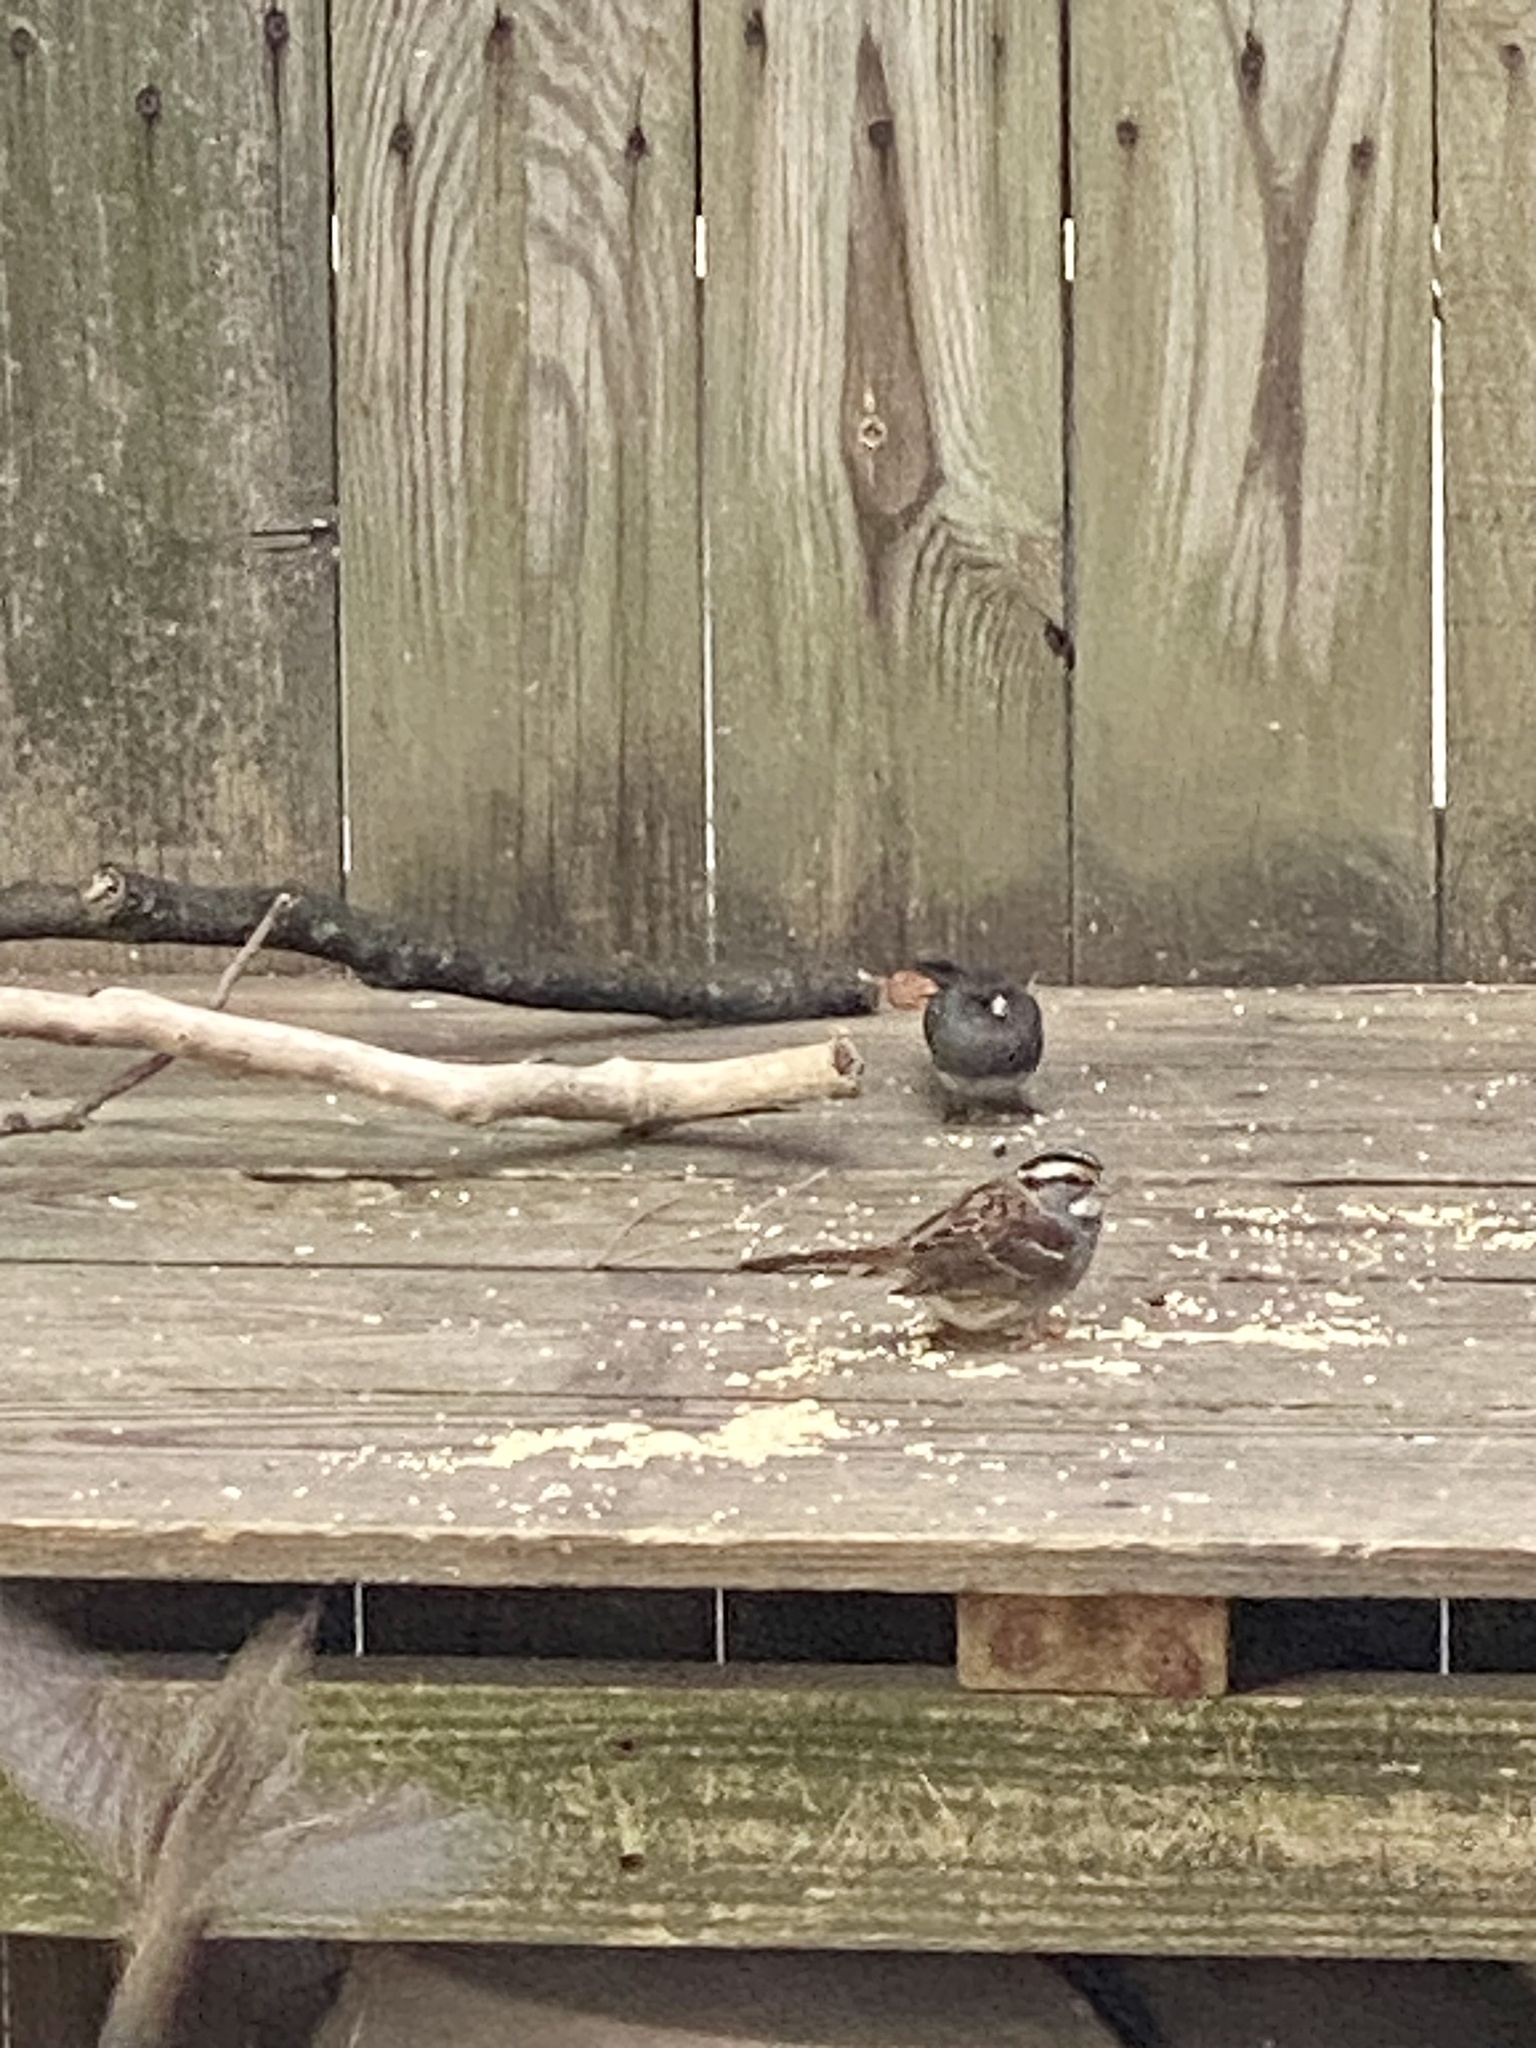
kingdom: Animalia
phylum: Chordata
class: Aves
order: Passeriformes
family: Passerellidae
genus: Zonotrichia
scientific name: Zonotrichia albicollis
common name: White-throated sparrow
